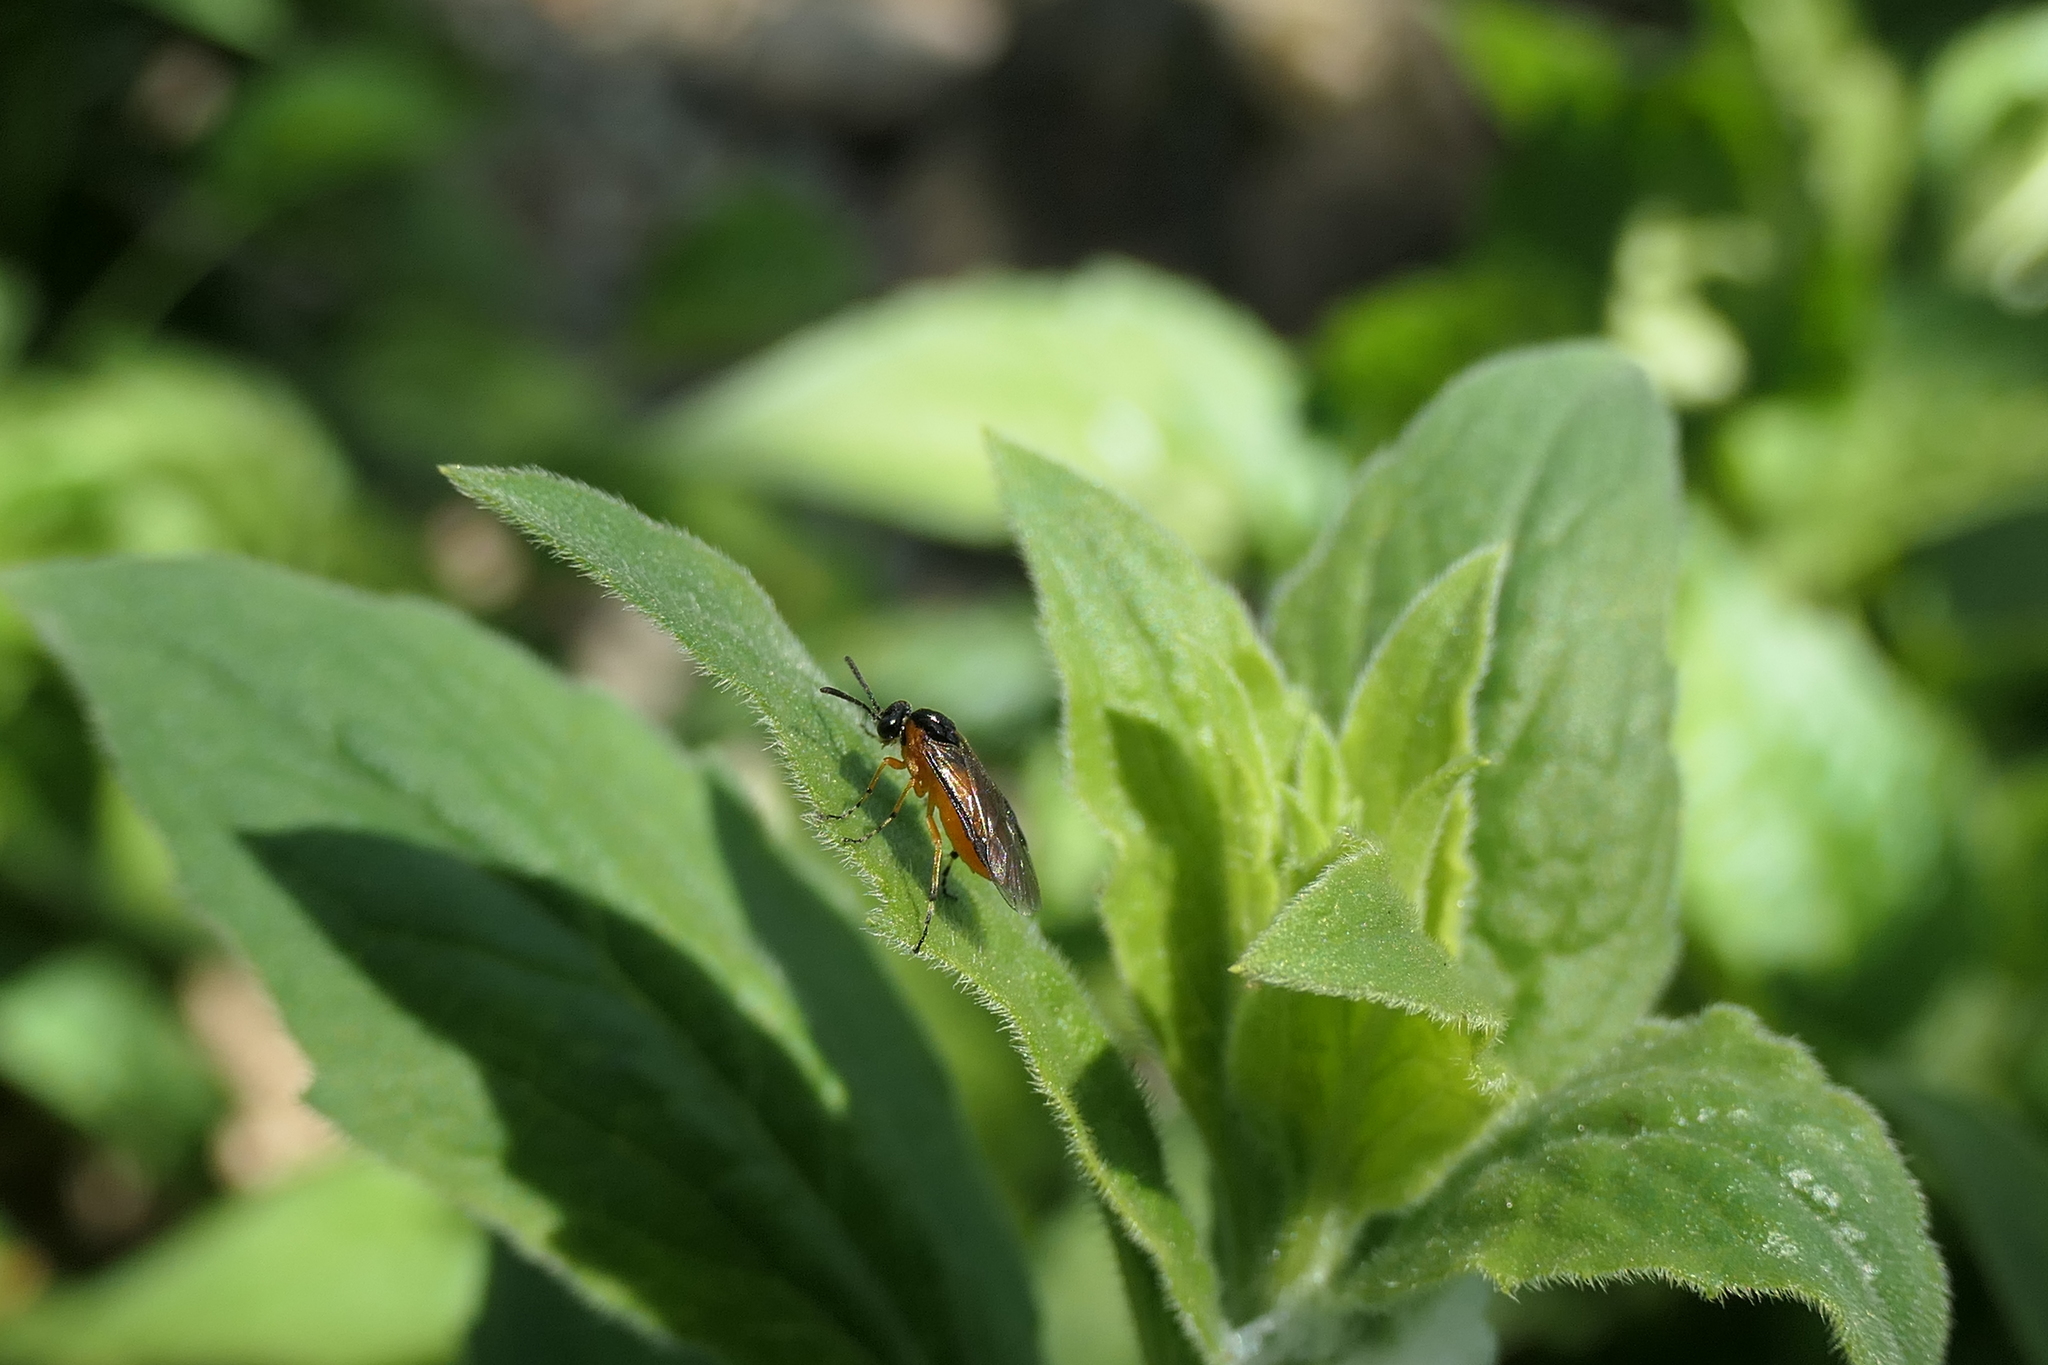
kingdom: Animalia
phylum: Arthropoda
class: Insecta
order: Hymenoptera
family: Tenthredinidae
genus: Athalia
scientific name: Athalia rosae
